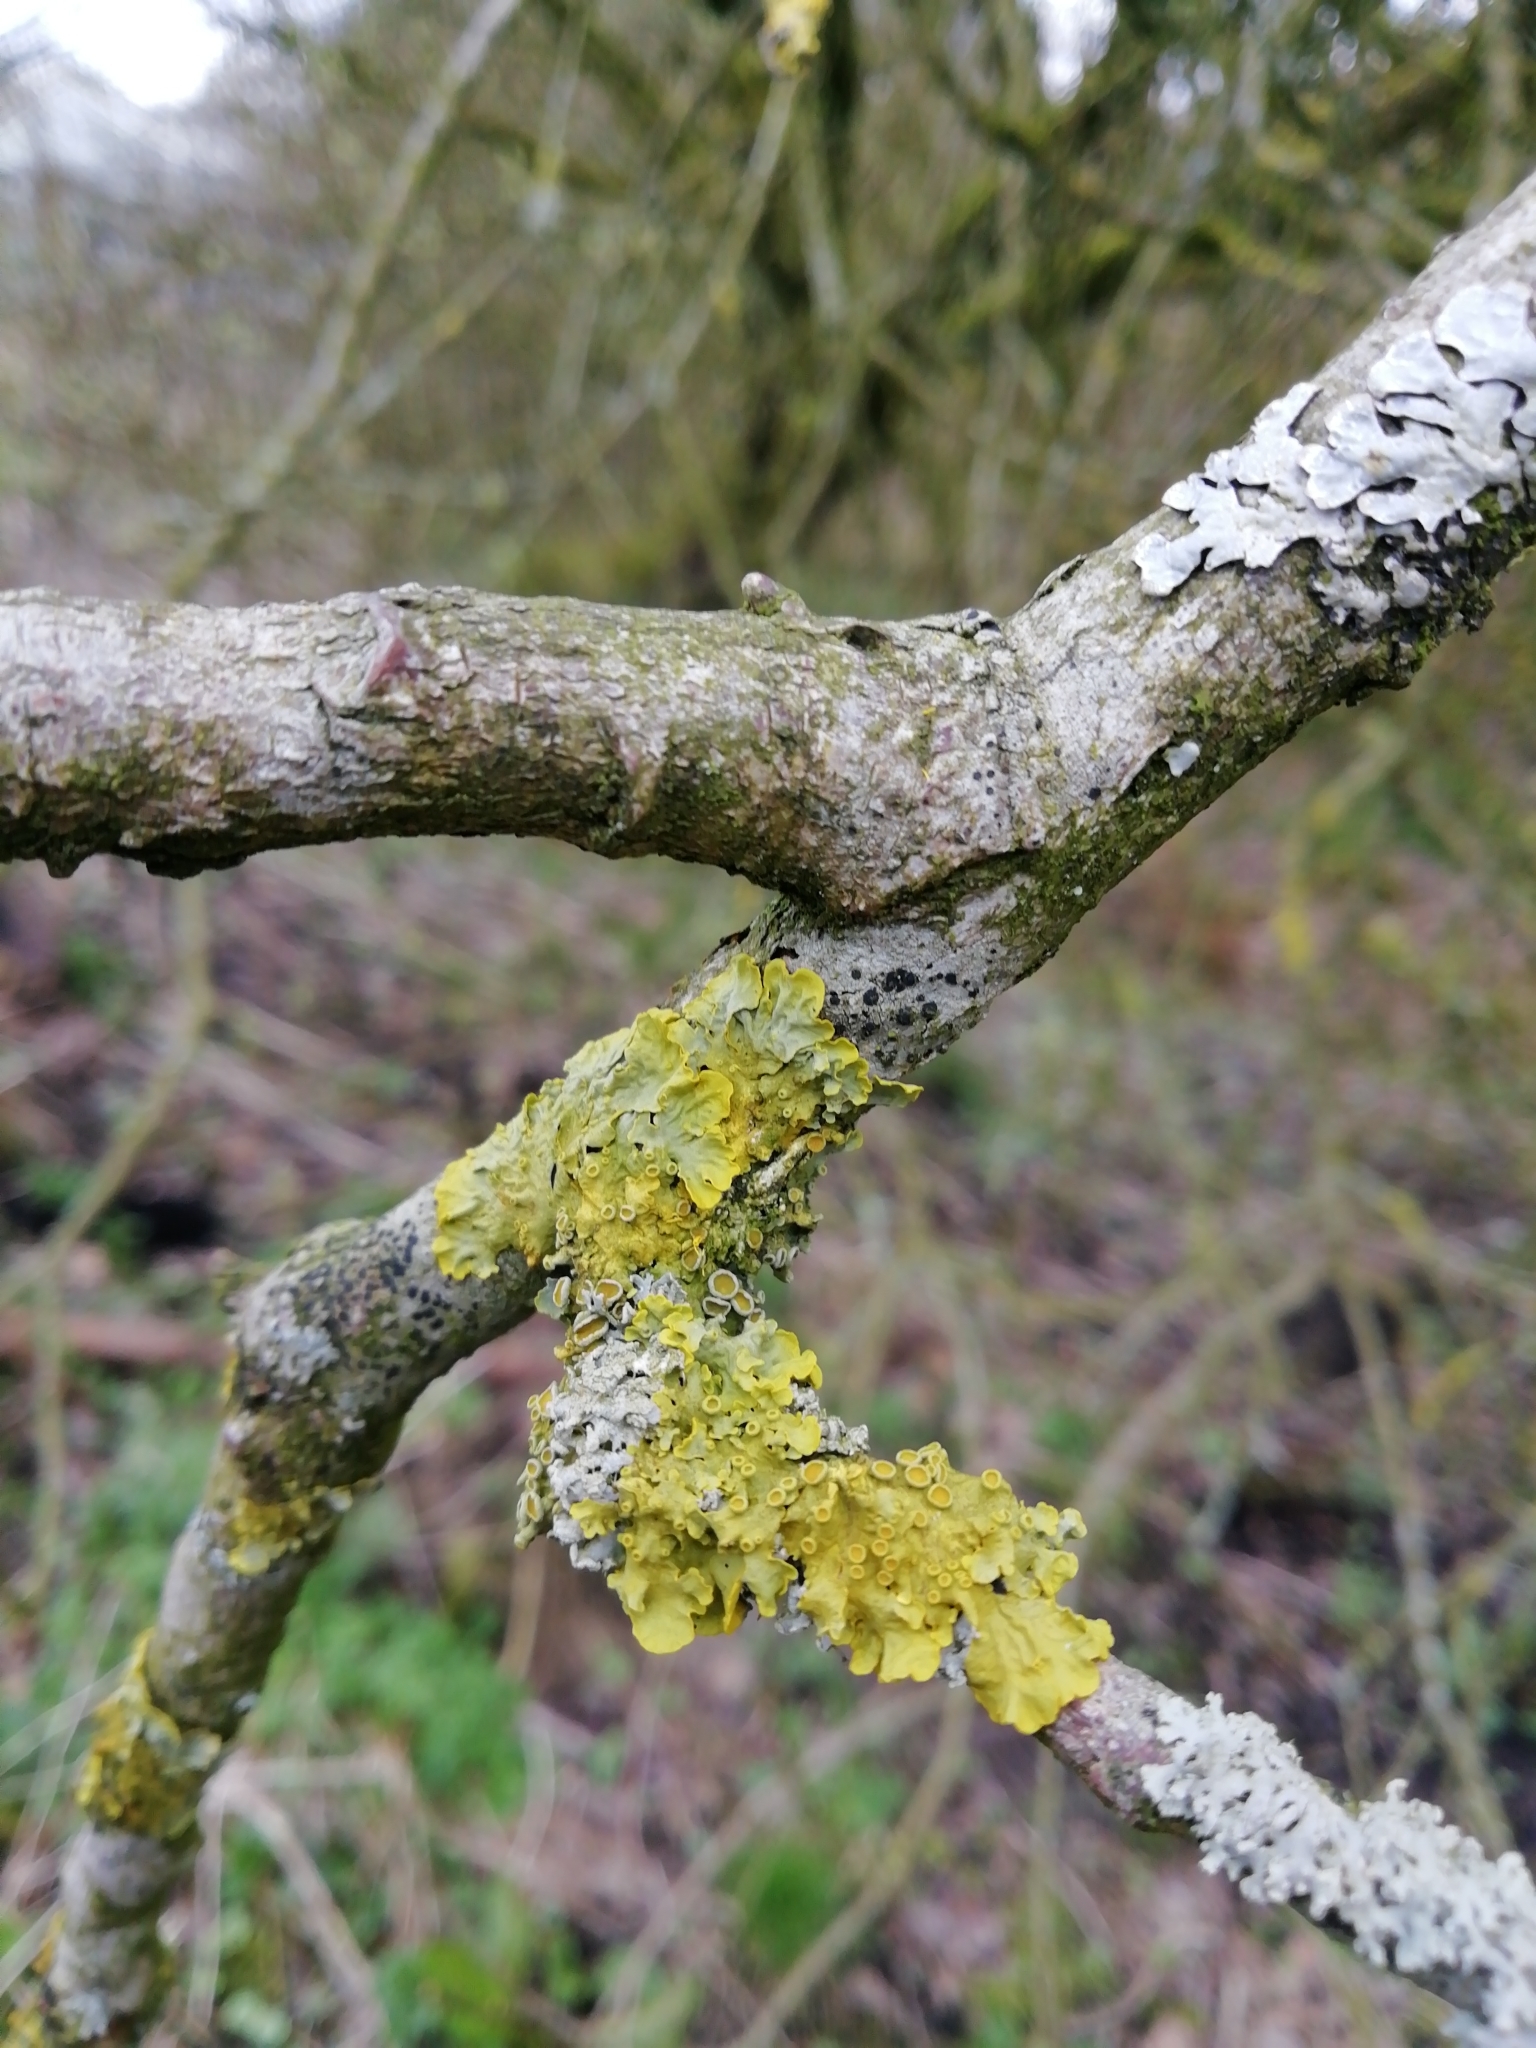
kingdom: Fungi
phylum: Ascomycota
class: Lecanoromycetes
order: Teloschistales
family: Teloschistaceae
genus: Xanthoria
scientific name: Xanthoria parietina
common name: Common orange lichen
